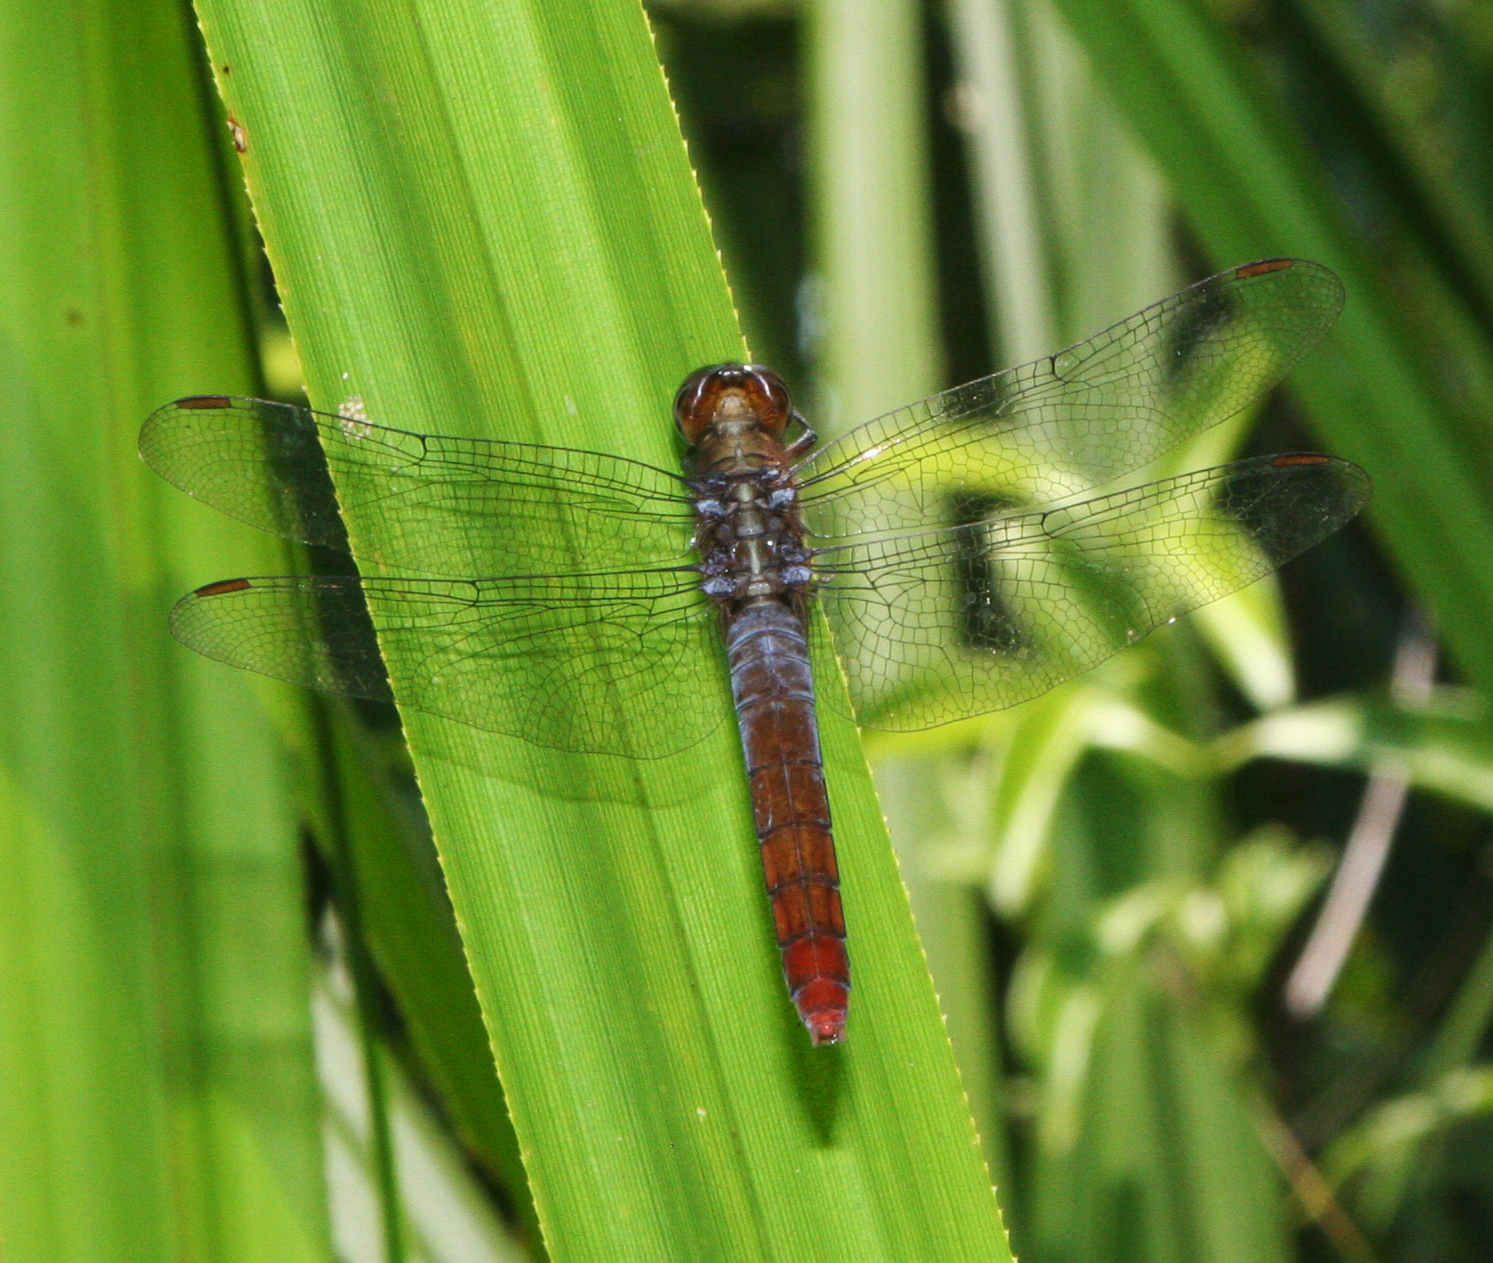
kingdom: Animalia
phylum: Arthropoda
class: Insecta
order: Odonata
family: Libellulidae
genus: Orthetrum
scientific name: Orthetrum chrysis
